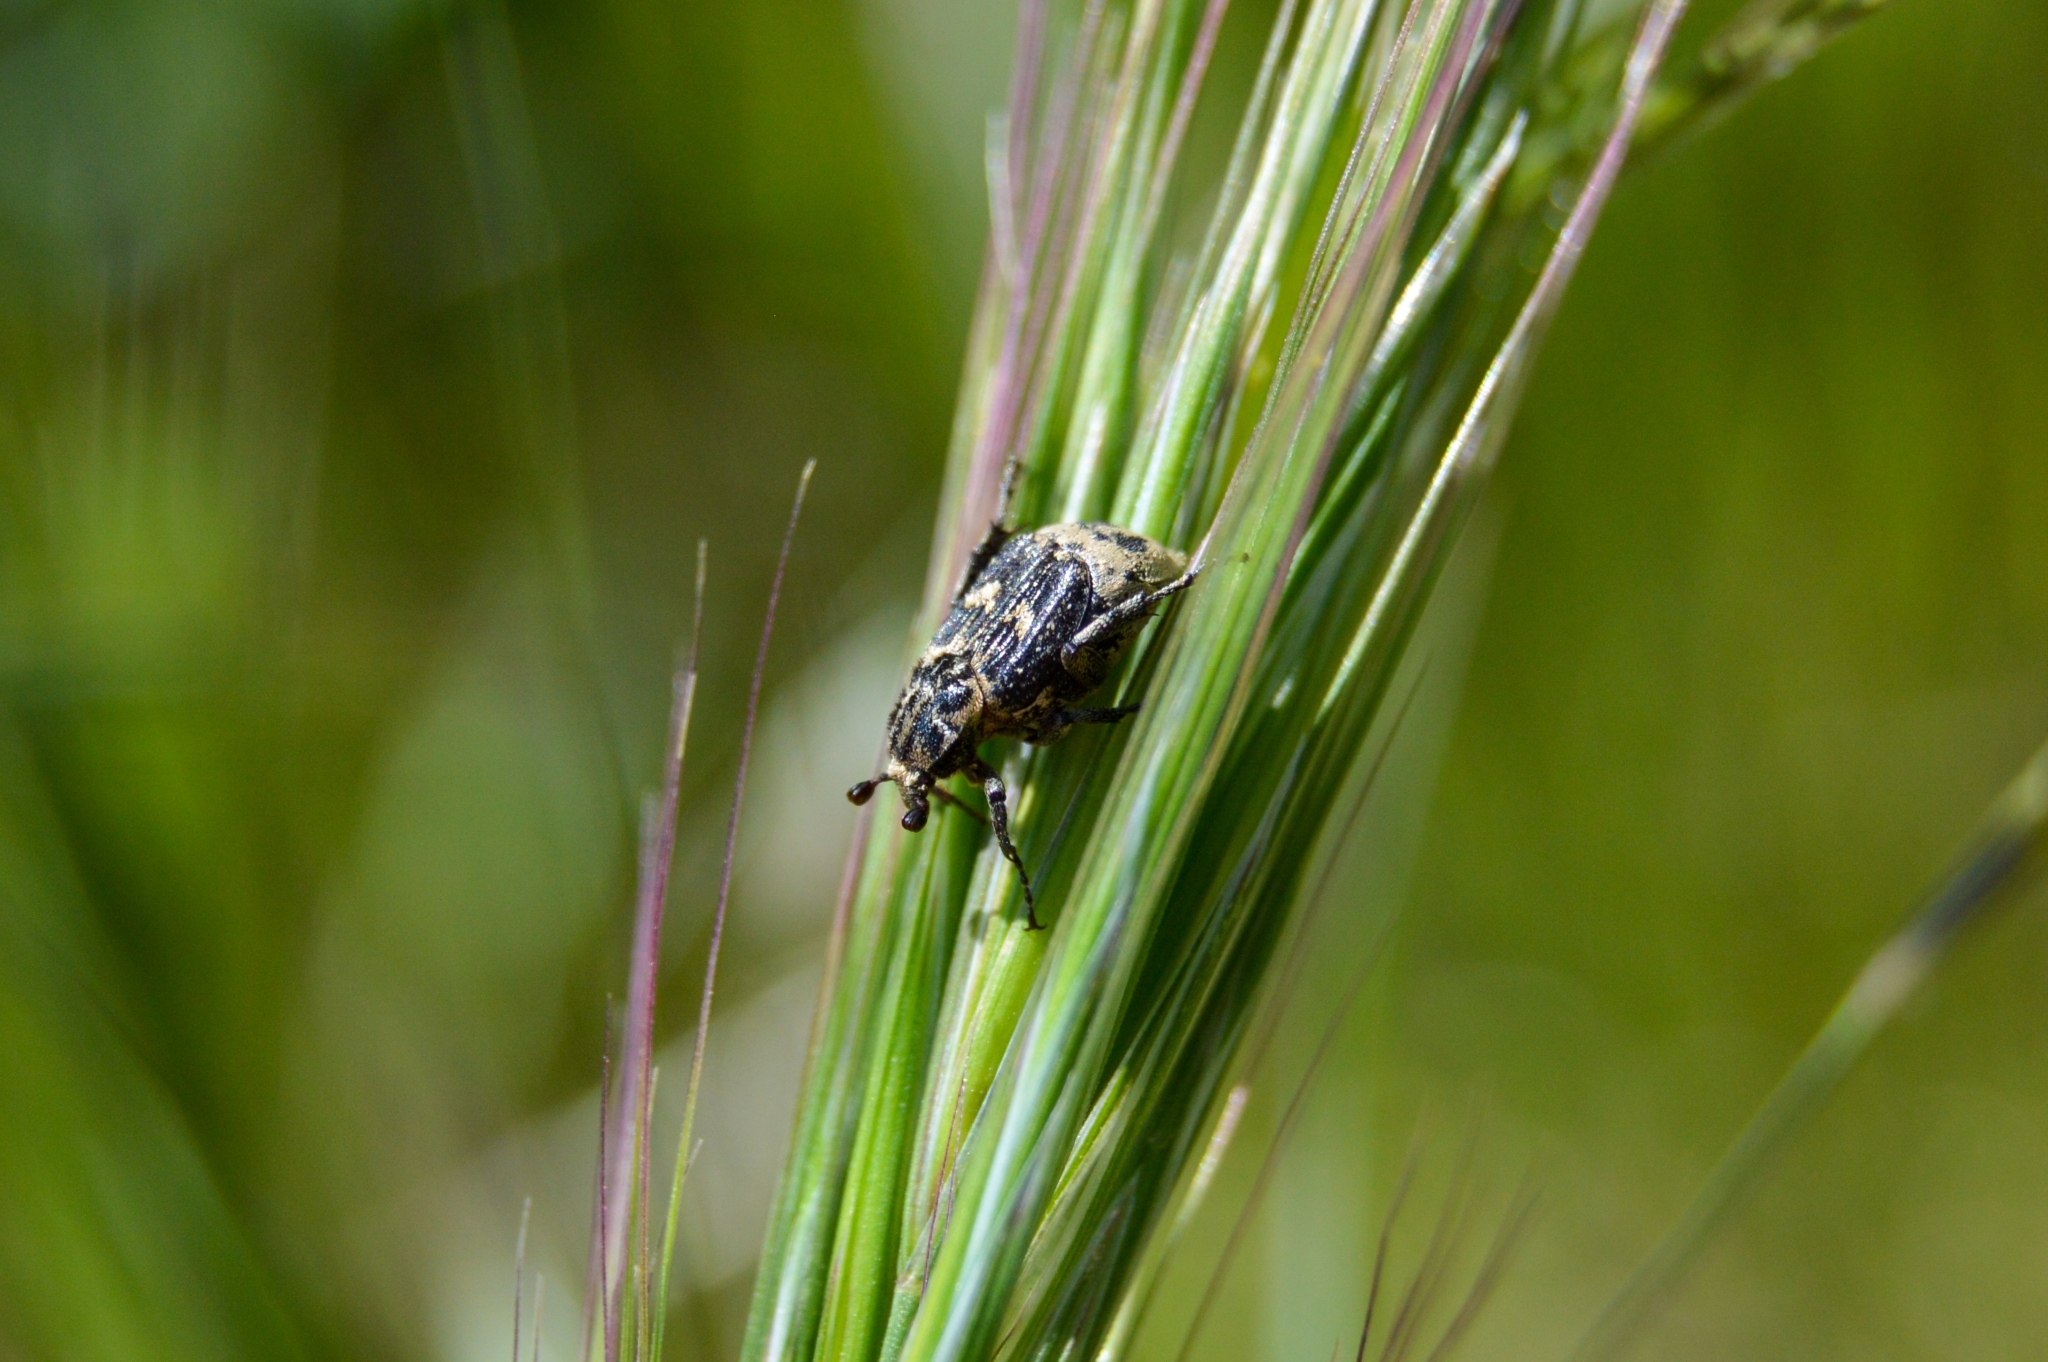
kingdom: Animalia
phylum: Arthropoda
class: Insecta
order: Coleoptera
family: Scarabaeidae
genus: Valgus
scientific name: Valgus hemipterus
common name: Bug flower chafer
